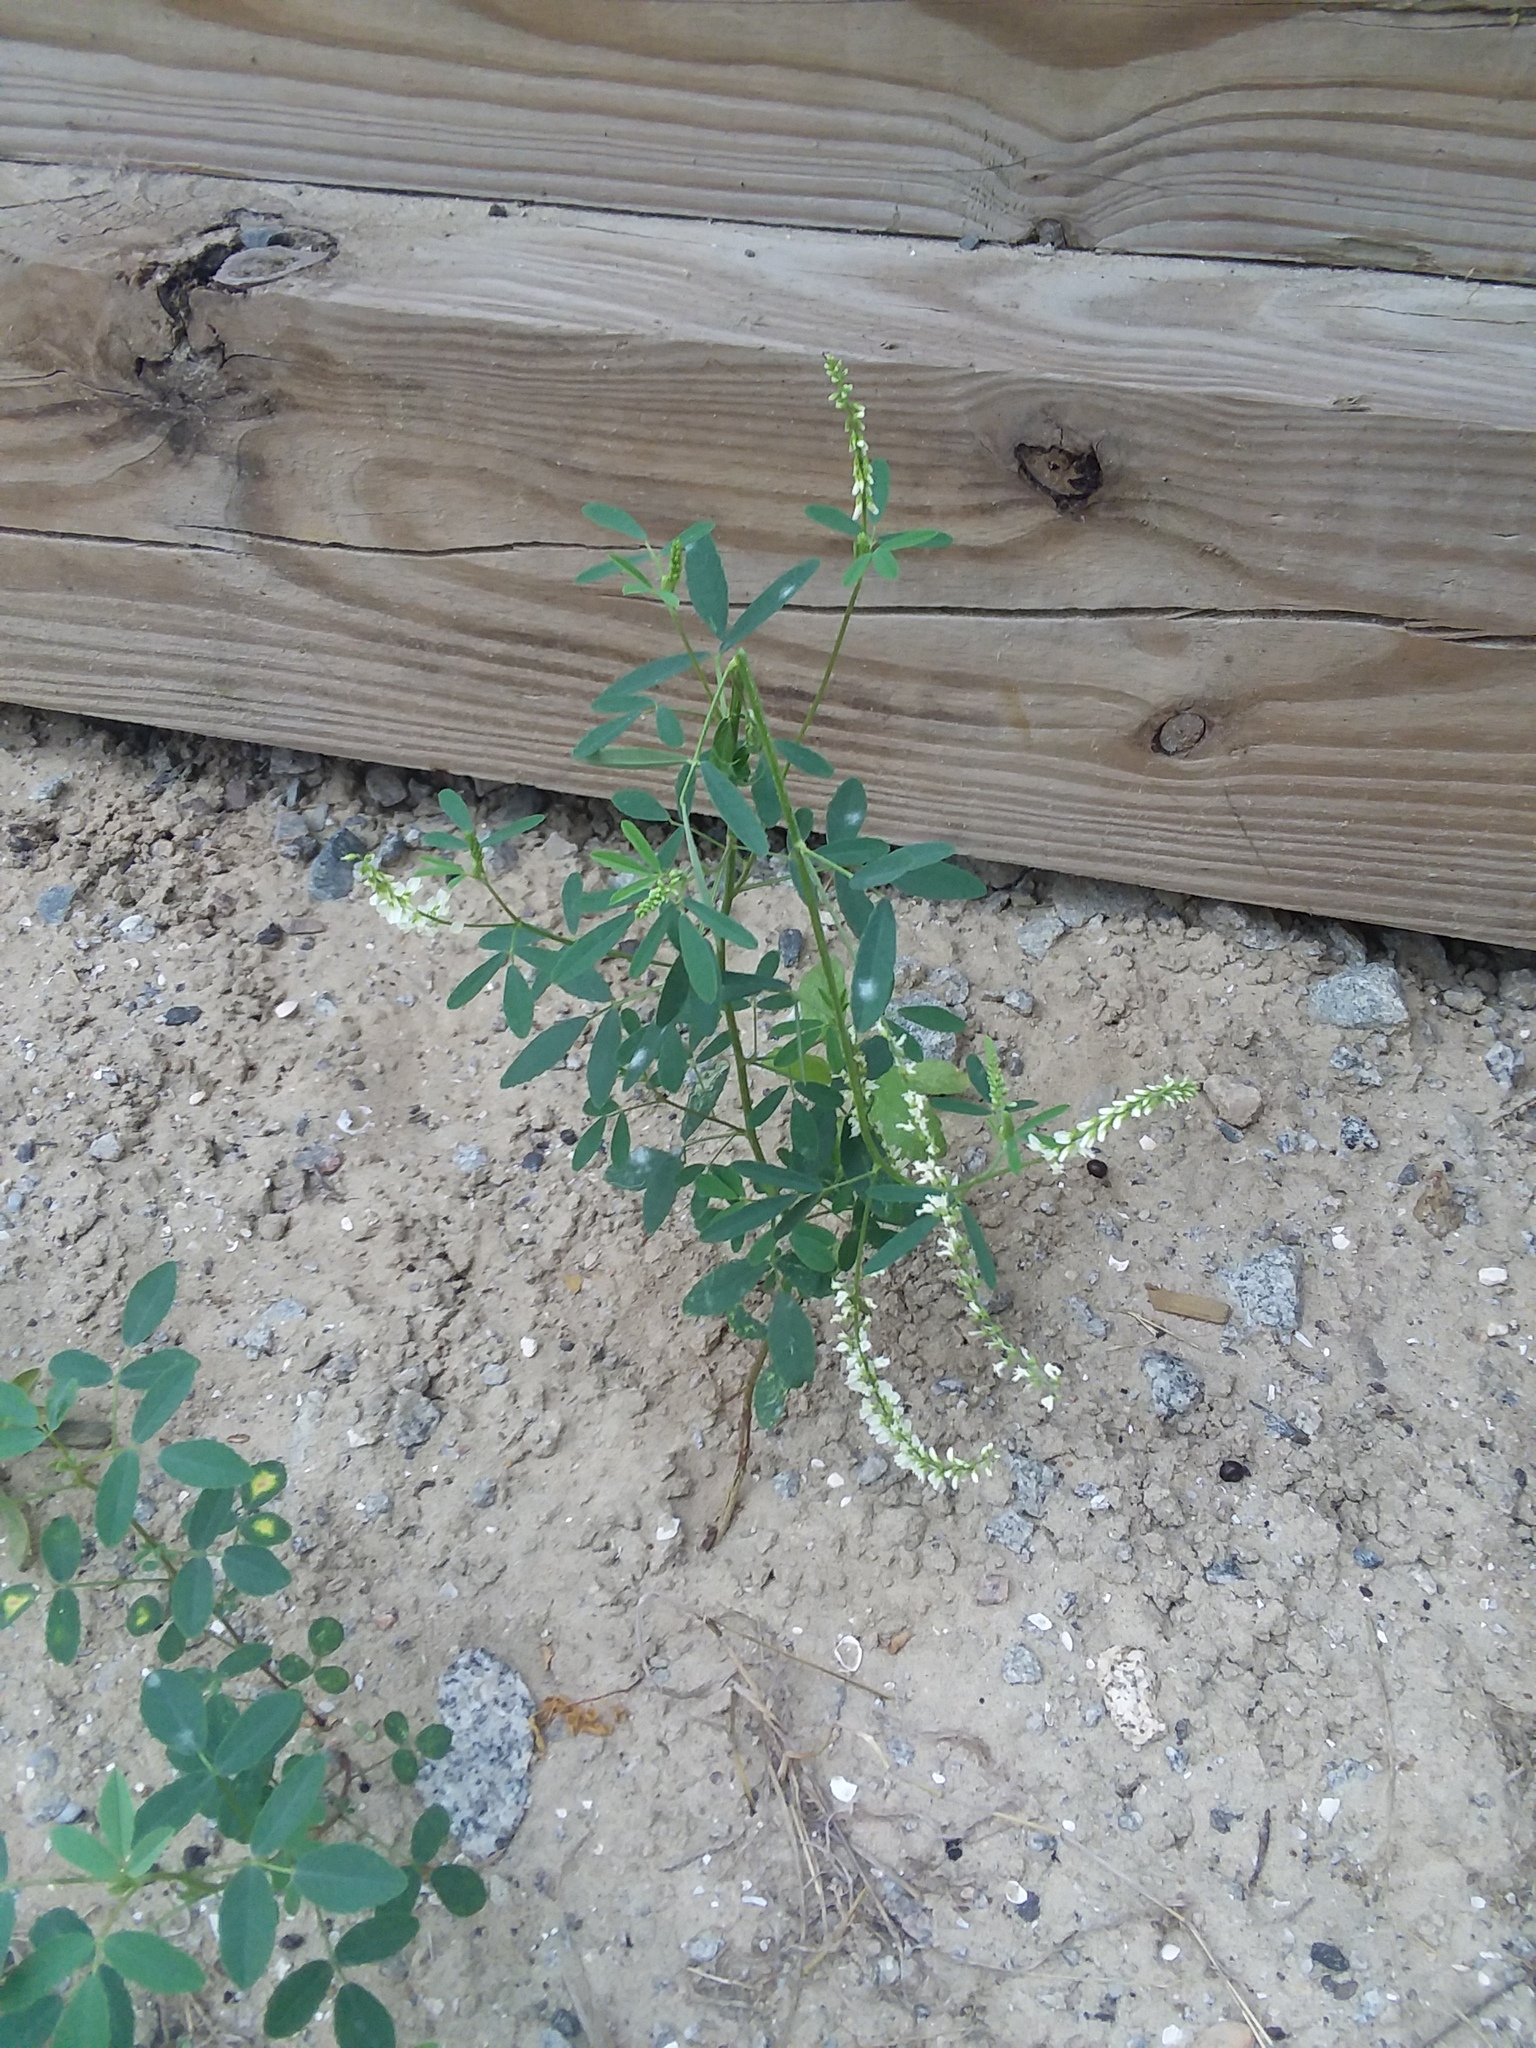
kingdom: Plantae
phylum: Tracheophyta
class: Magnoliopsida
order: Fabales
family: Fabaceae
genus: Melilotus
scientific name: Melilotus albus
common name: White melilot
